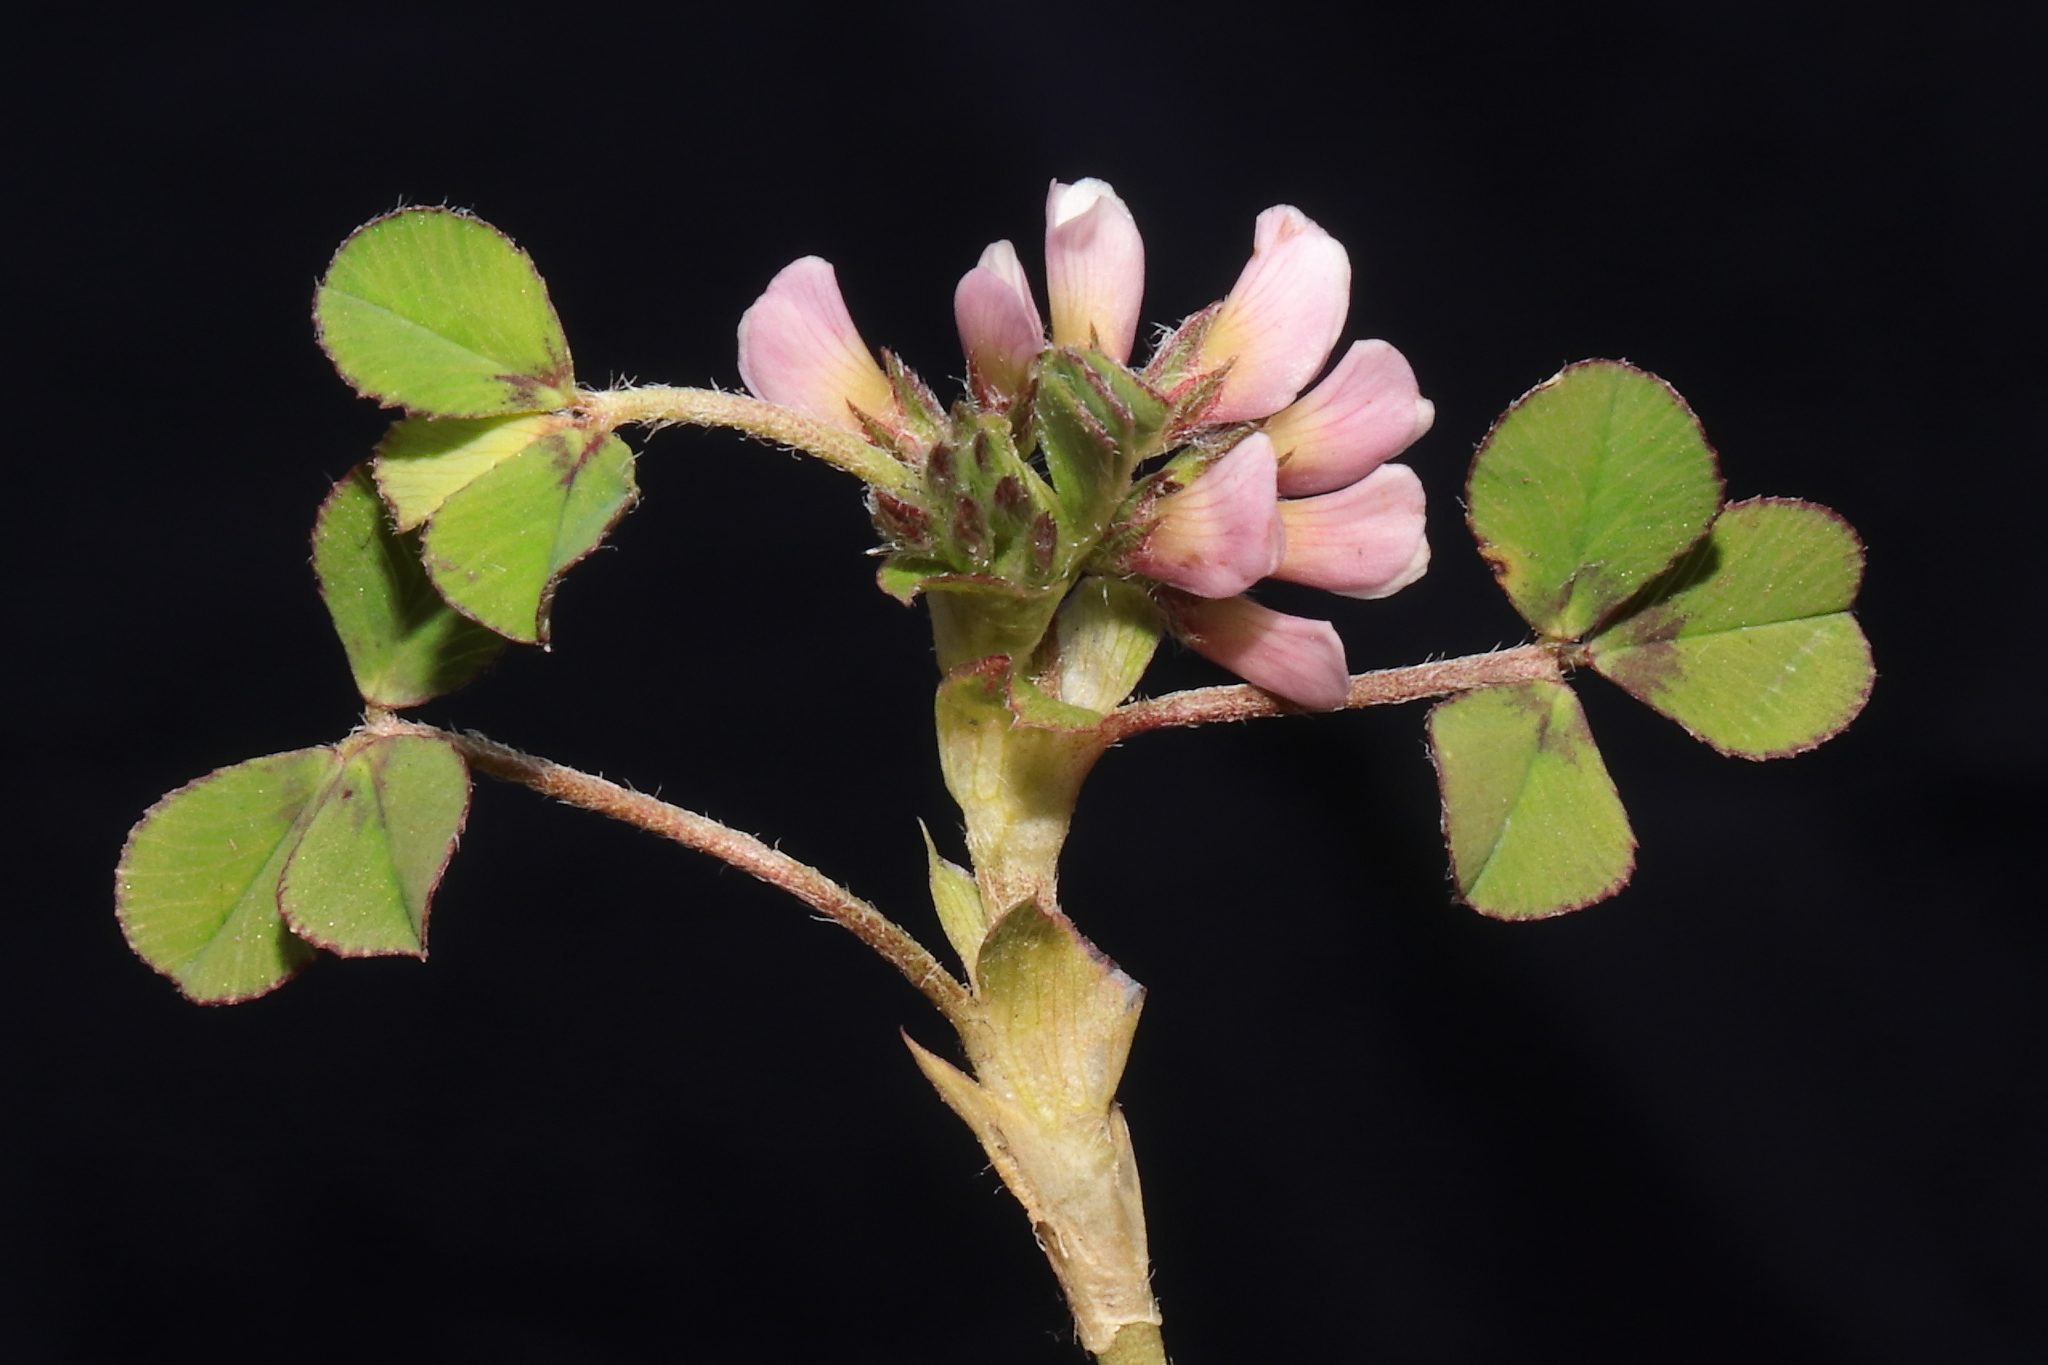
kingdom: Plantae
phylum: Tracheophyta
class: Magnoliopsida
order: Fabales
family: Fabaceae
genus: Trifolium
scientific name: Trifolium amabile
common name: Aztec clover
